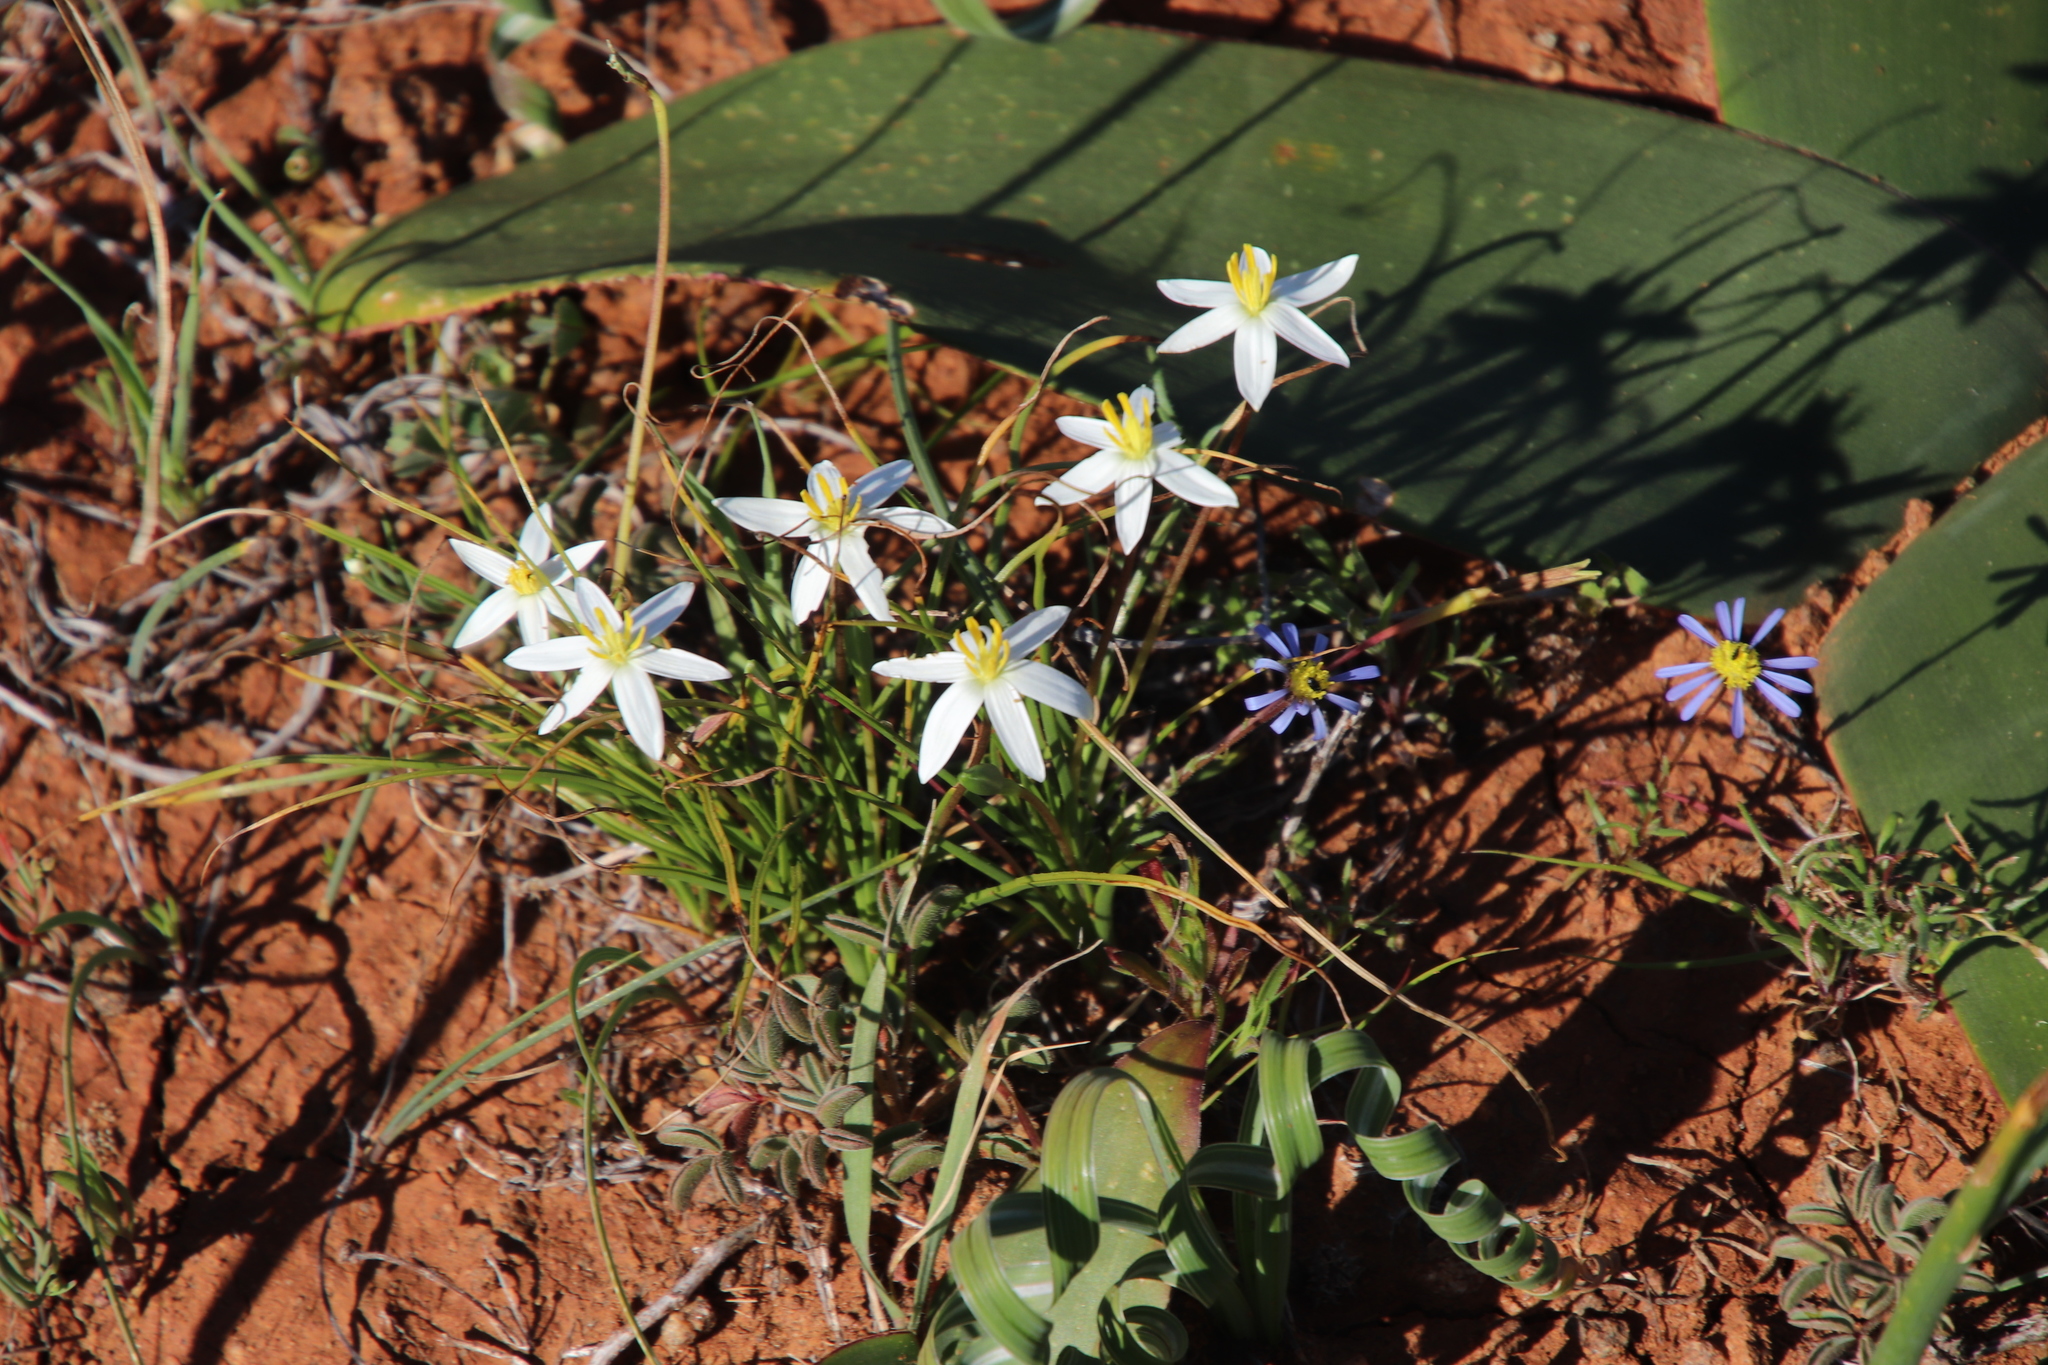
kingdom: Plantae
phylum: Tracheophyta
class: Liliopsida
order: Asparagales
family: Hypoxidaceae
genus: Pauridia
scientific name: Pauridia serrata
